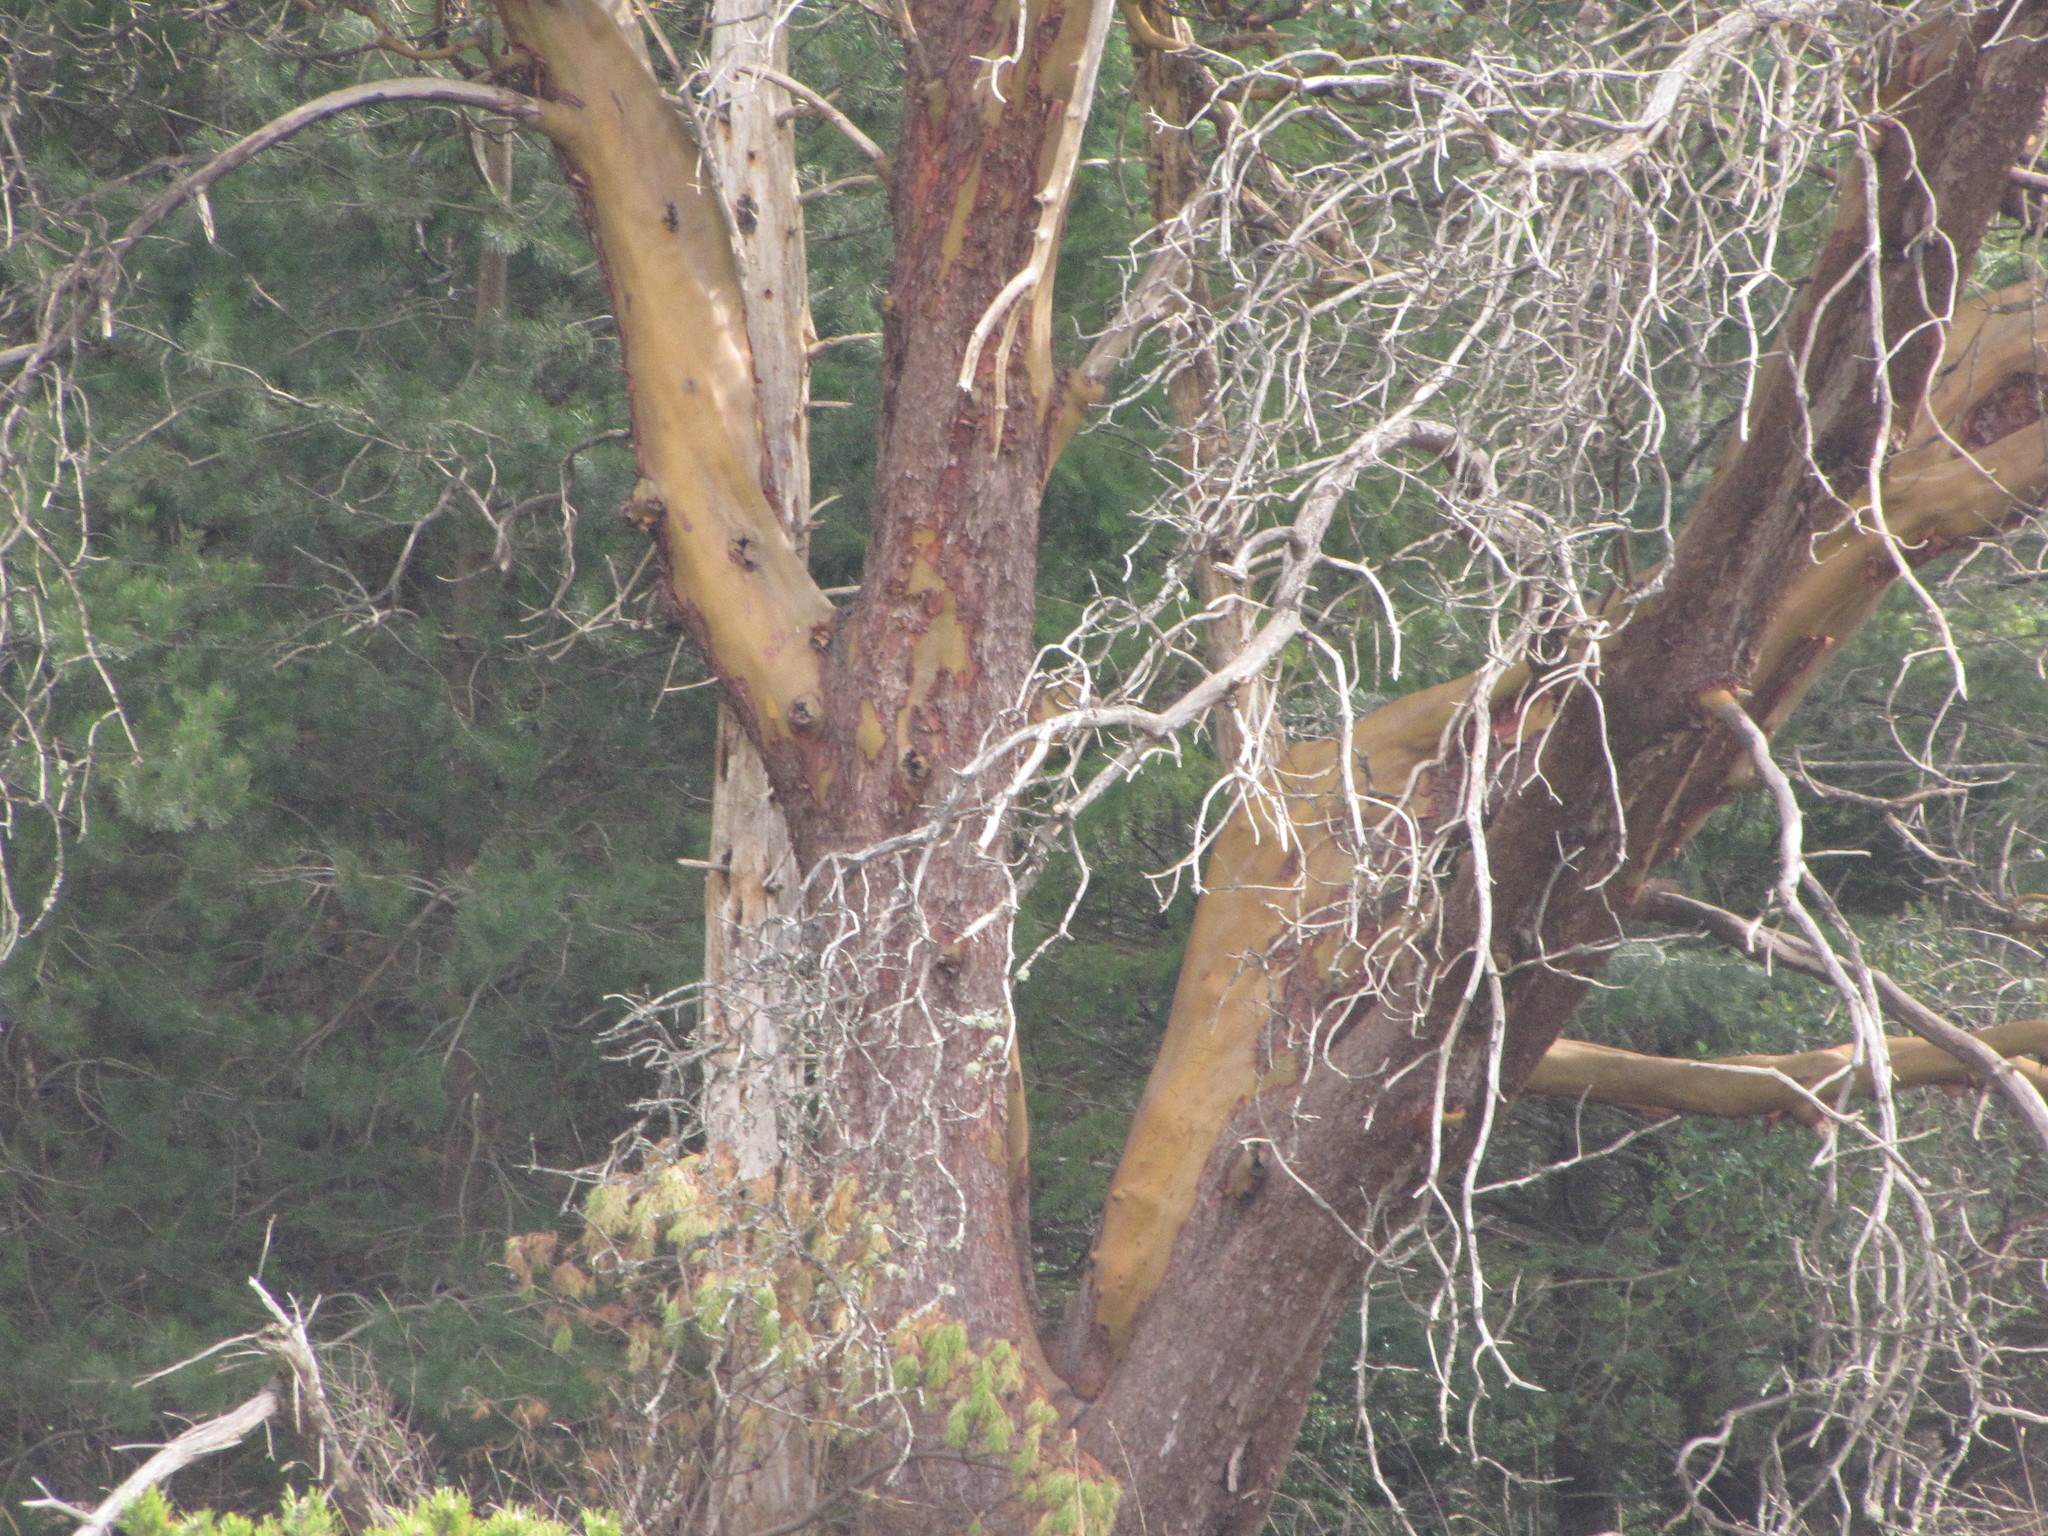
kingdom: Plantae
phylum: Tracheophyta
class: Magnoliopsida
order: Ericales
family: Ericaceae
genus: Arbutus
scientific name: Arbutus menziesii
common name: Pacific madrone
